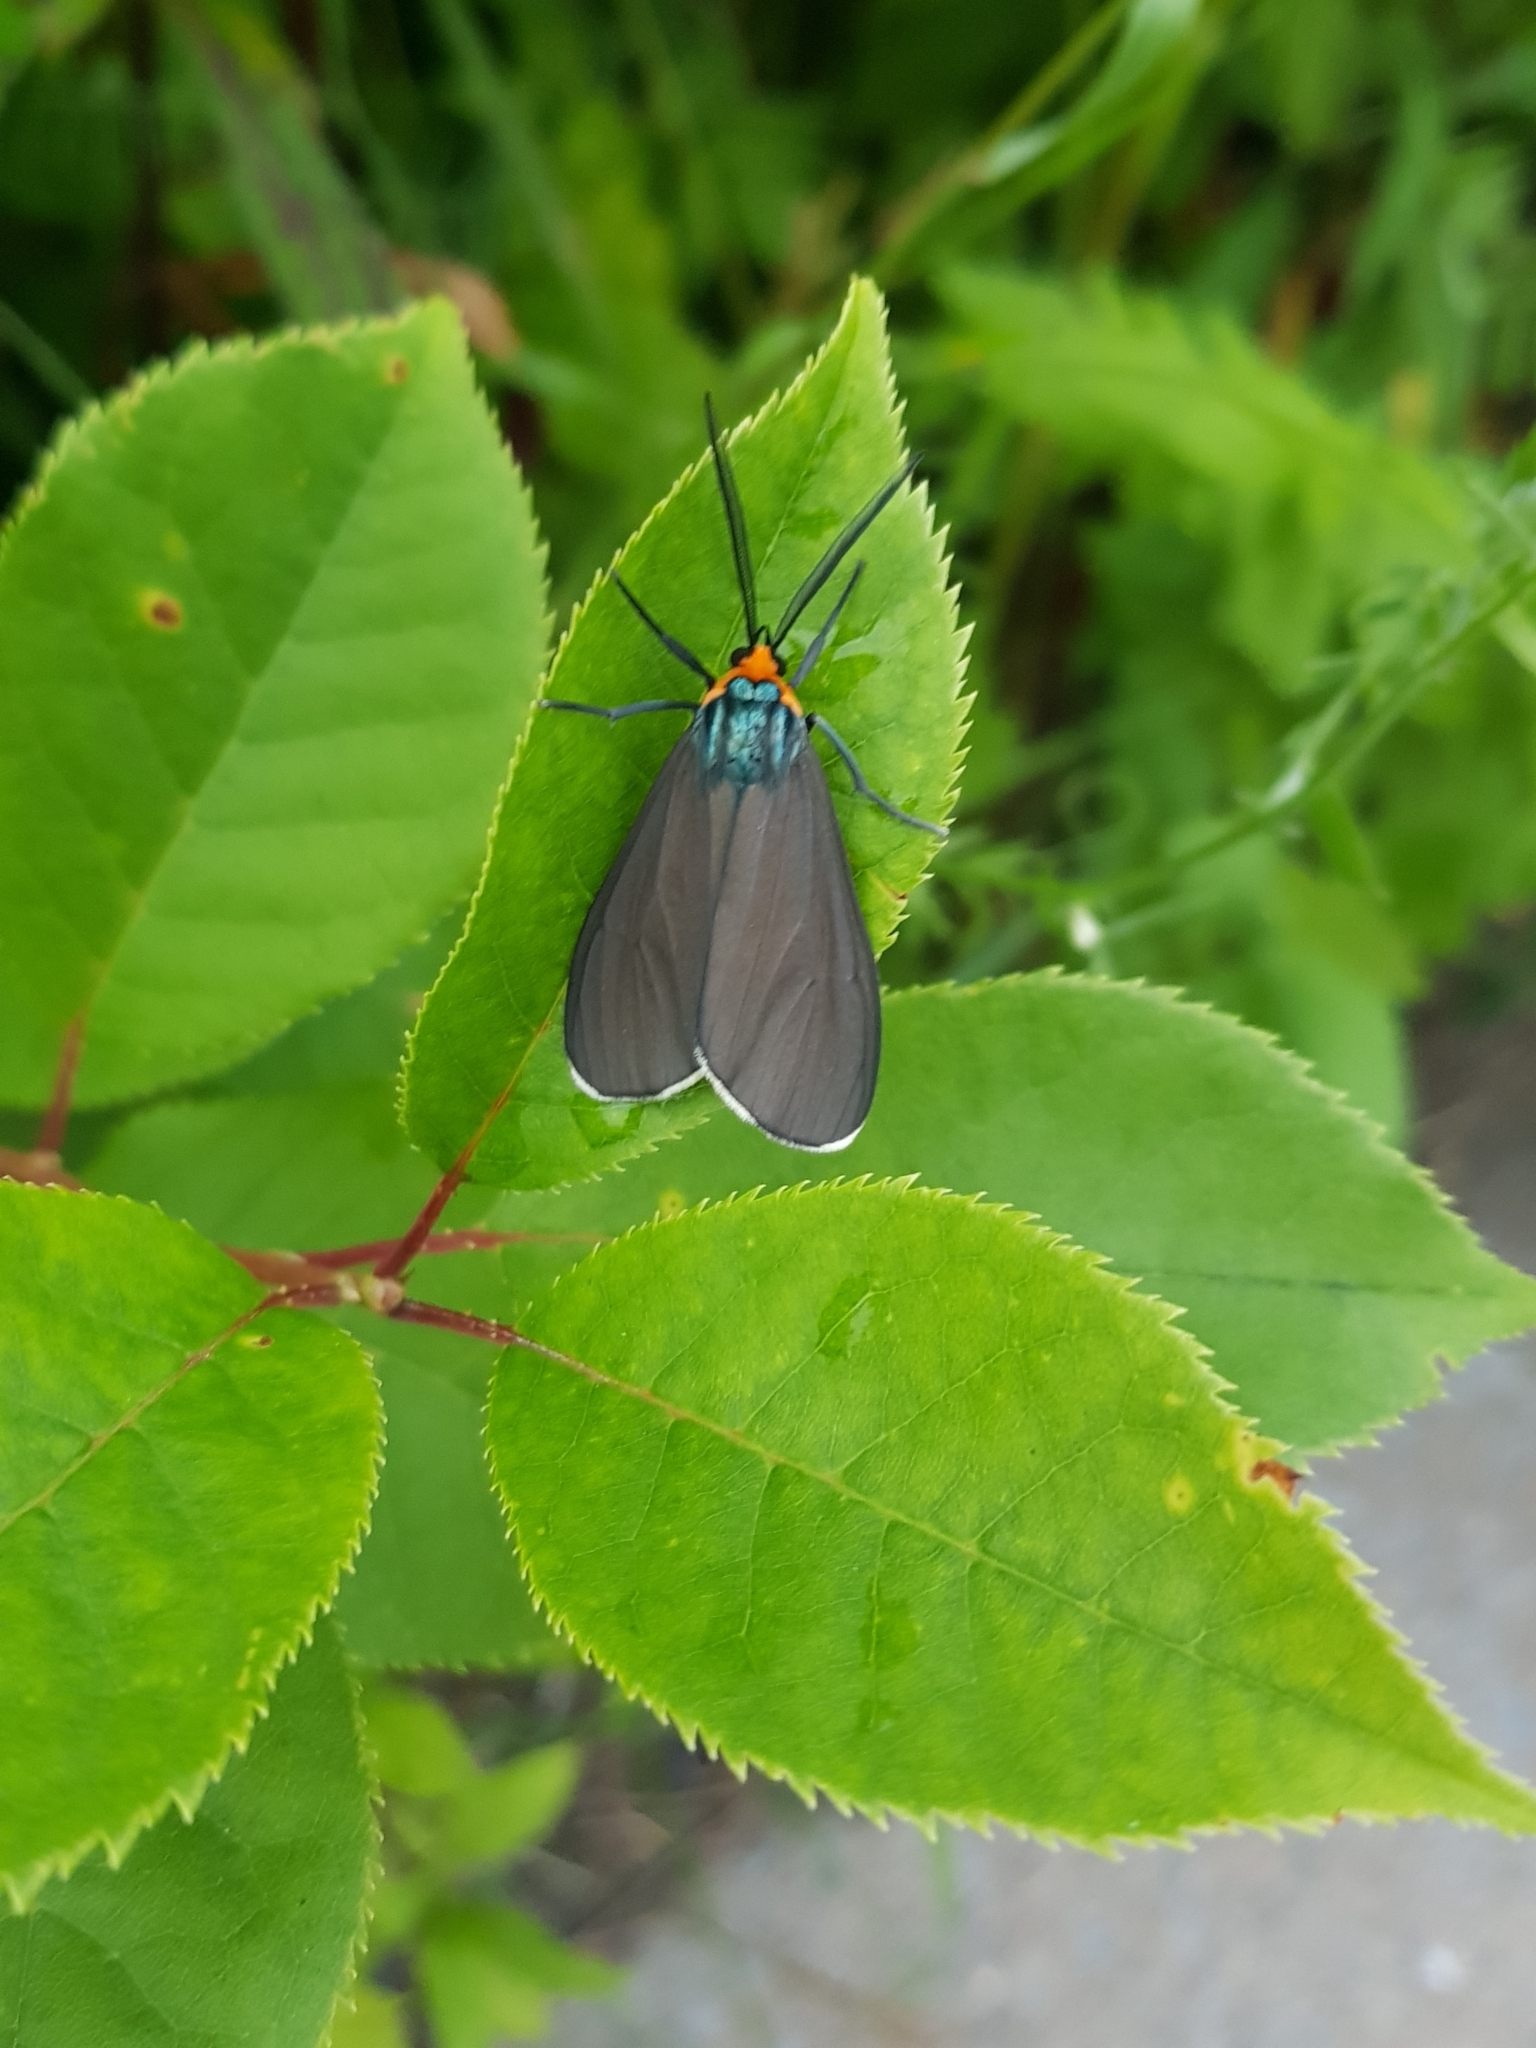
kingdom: Animalia
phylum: Arthropoda
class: Insecta
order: Lepidoptera
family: Erebidae
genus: Ctenucha
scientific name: Ctenucha virginica
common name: Virginia ctenucha moth
